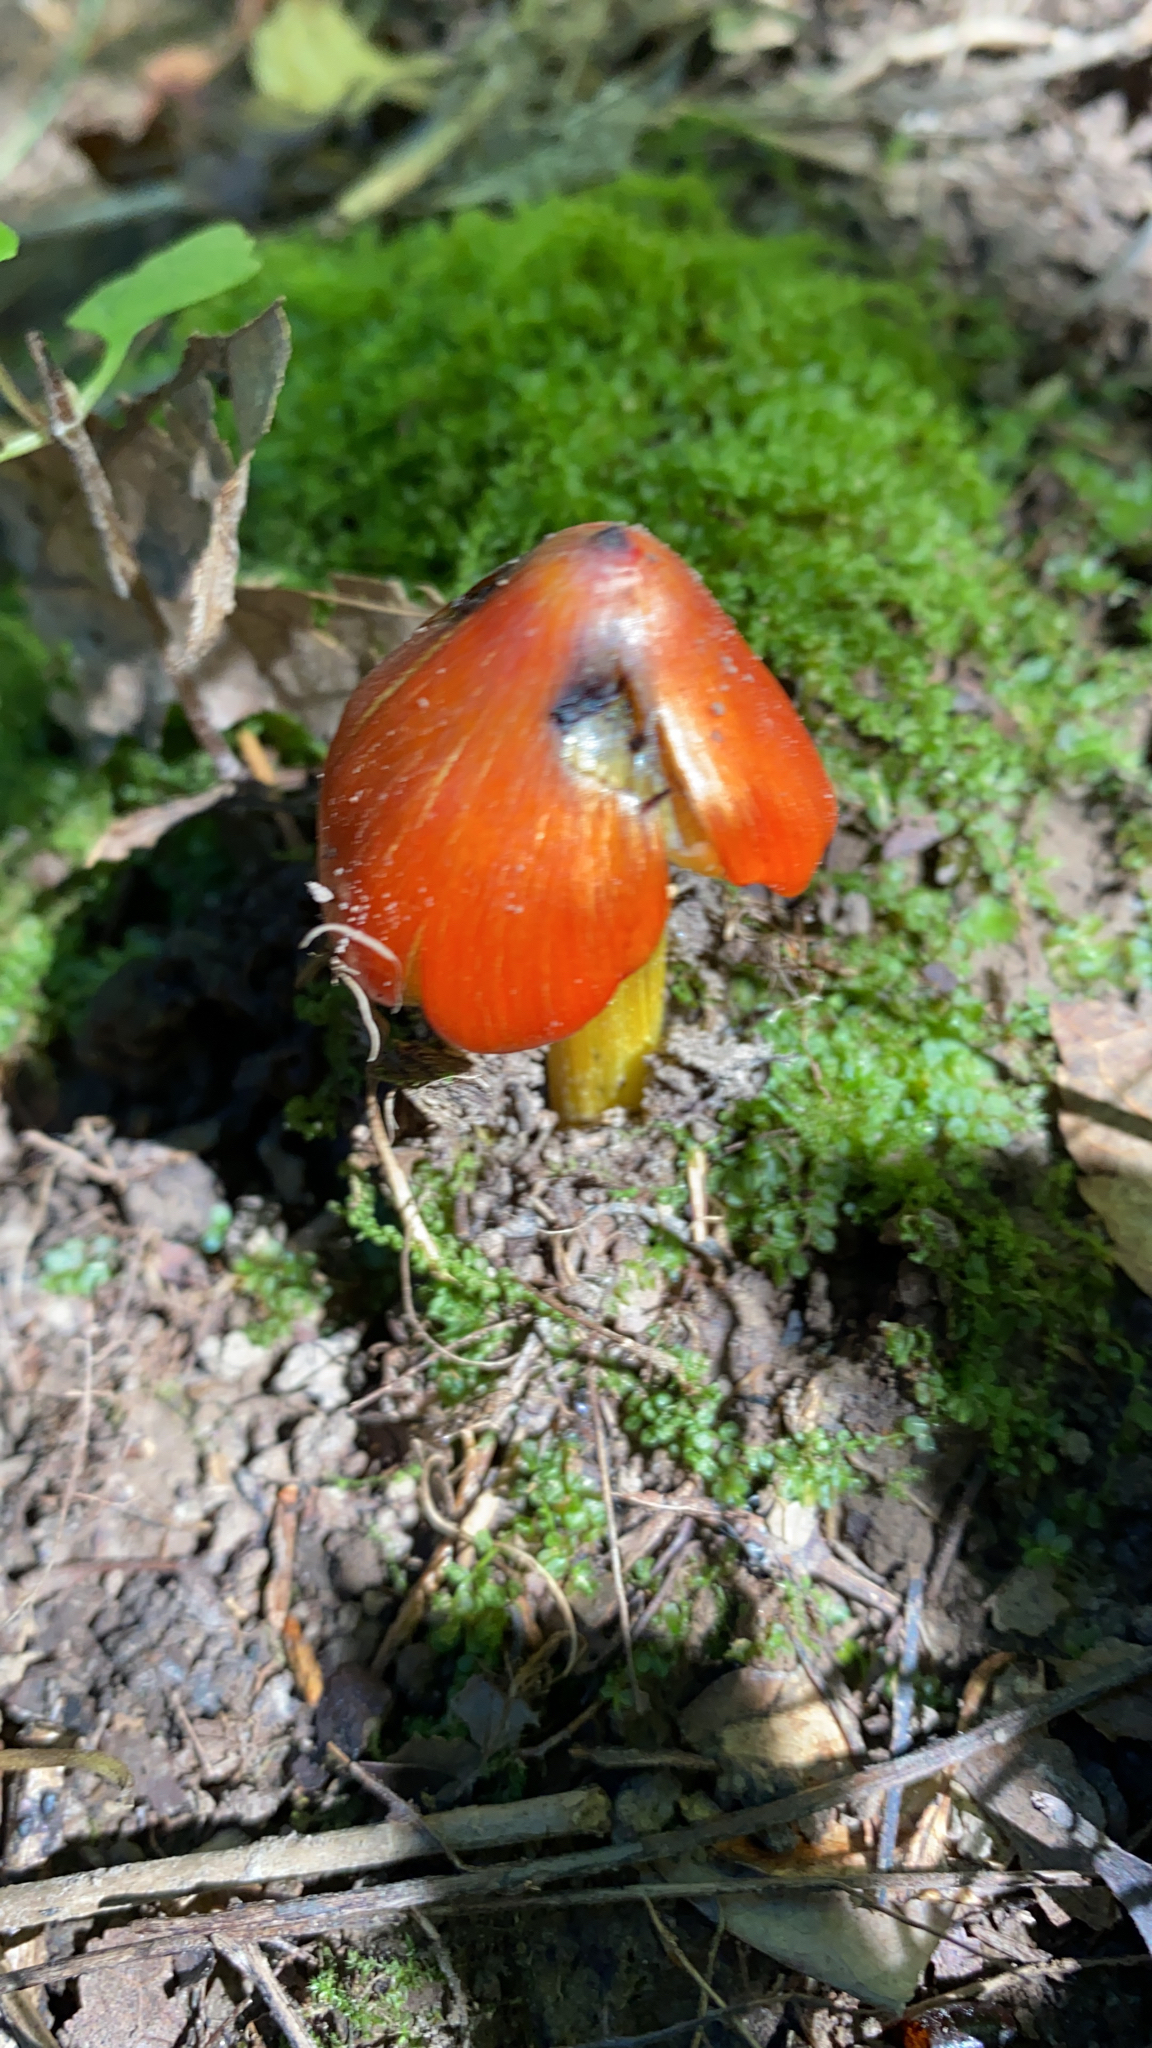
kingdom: Fungi
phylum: Basidiomycota
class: Agaricomycetes
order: Agaricales
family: Hygrophoraceae
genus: Hygrocybe
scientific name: Hygrocybe conica
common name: Blackening wax-cap
